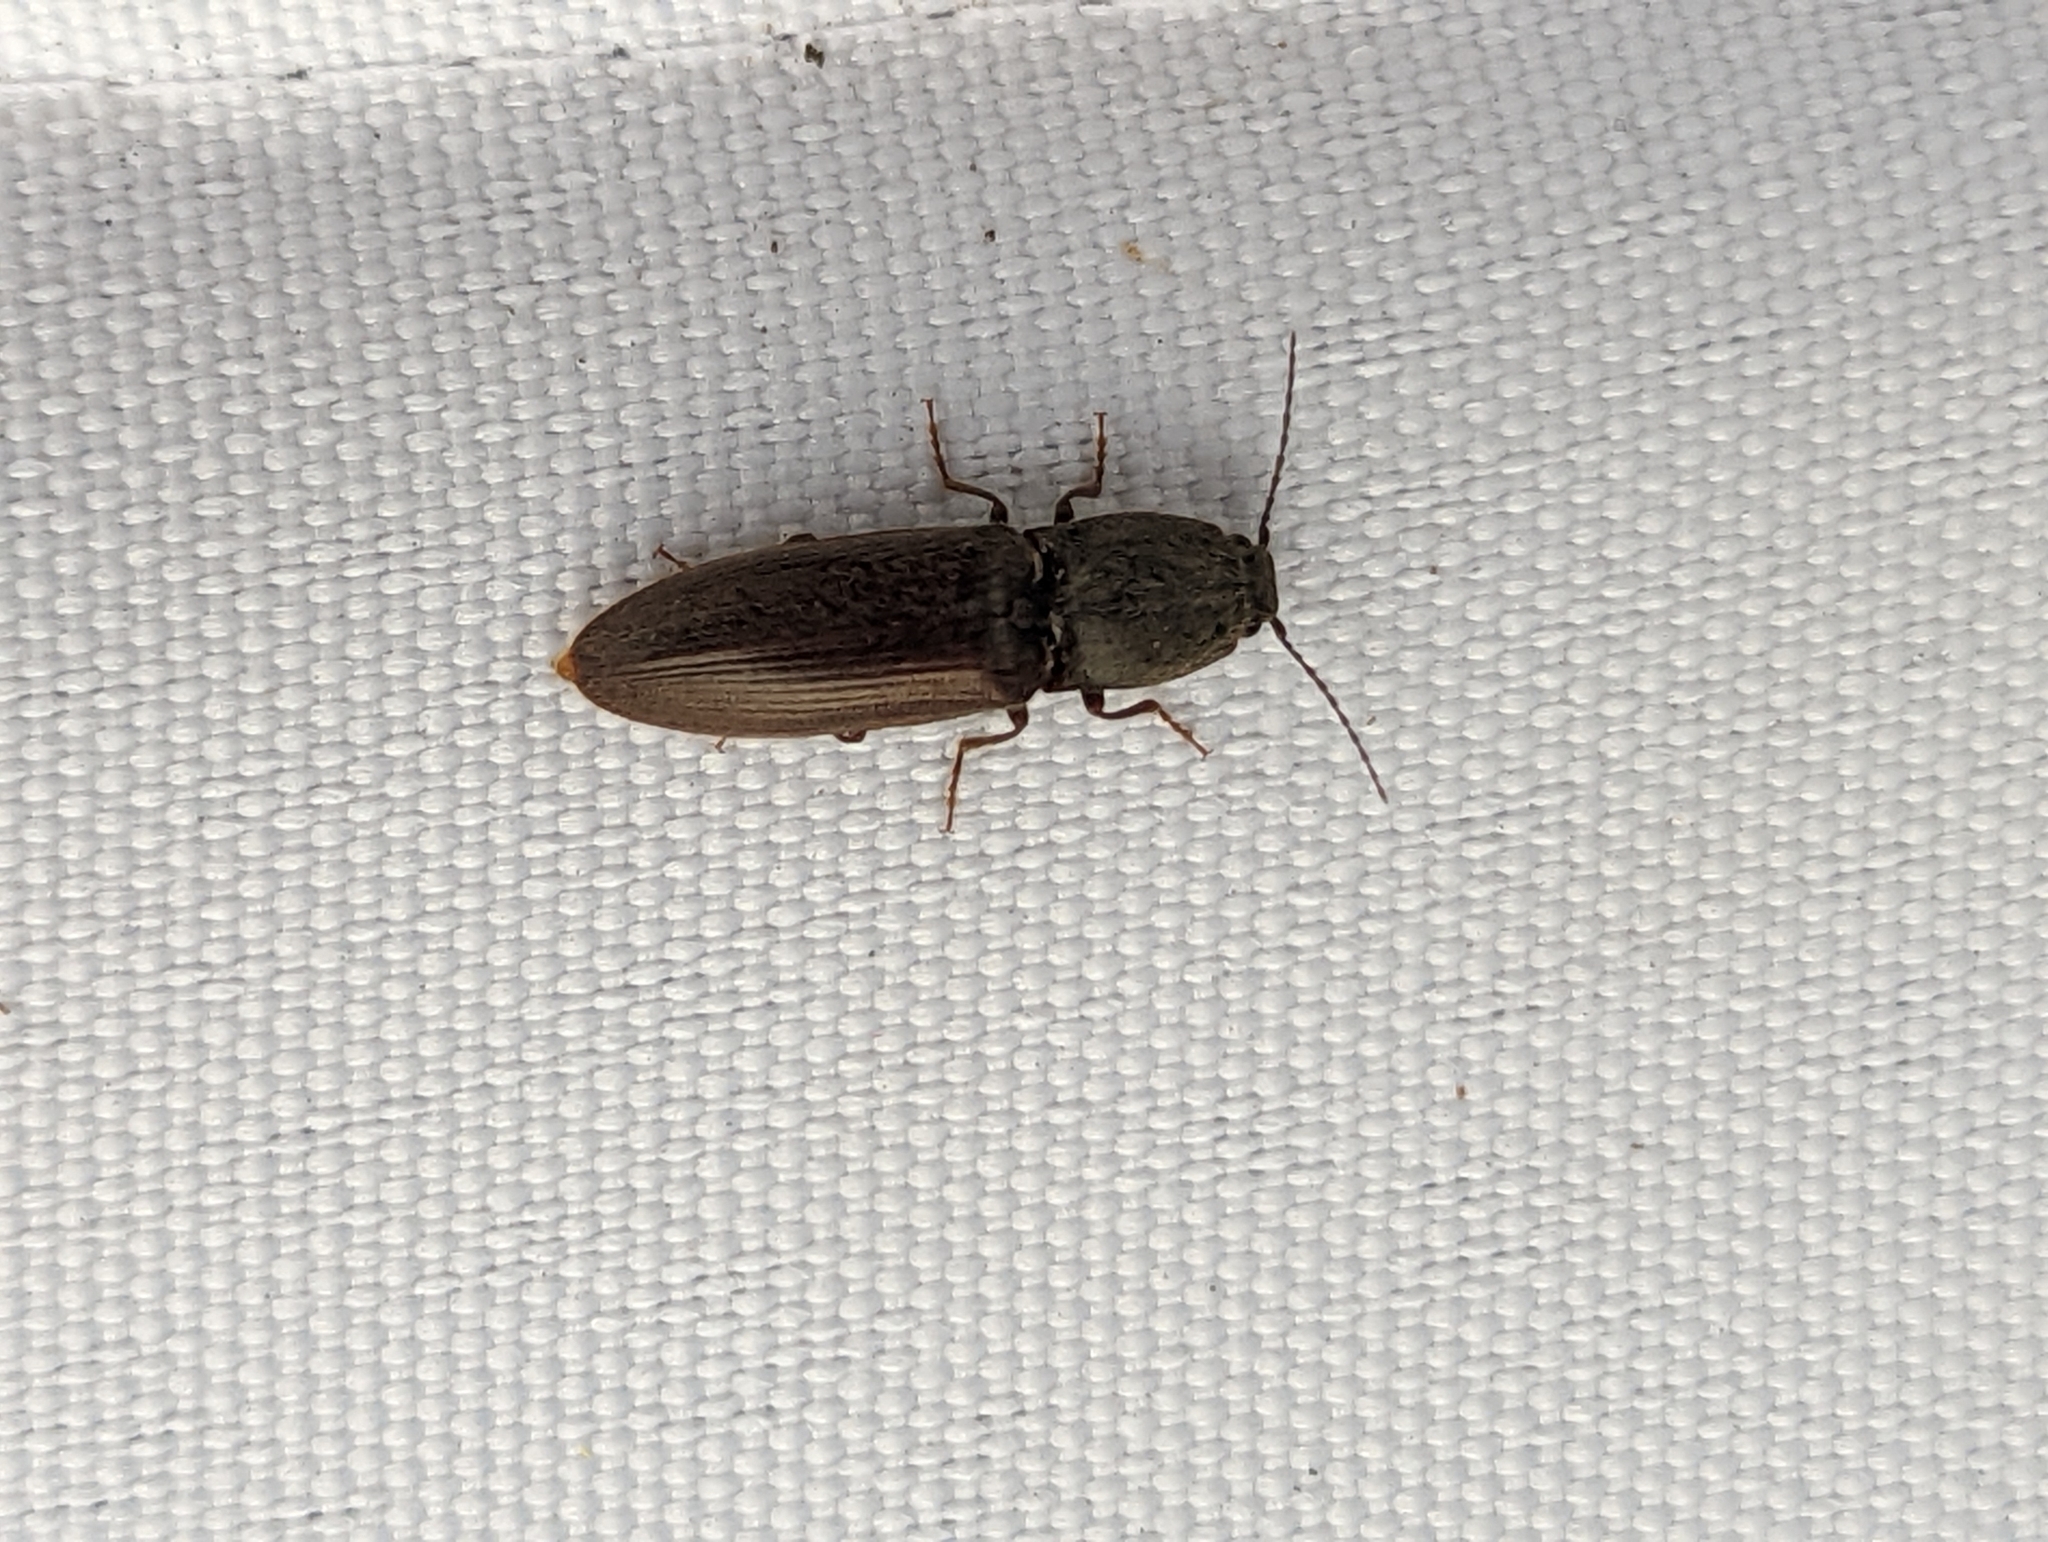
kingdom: Animalia
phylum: Arthropoda
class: Insecta
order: Coleoptera
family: Elateridae
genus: Athous
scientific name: Athous haemorrhoidalis
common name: Red-brown click beetle
